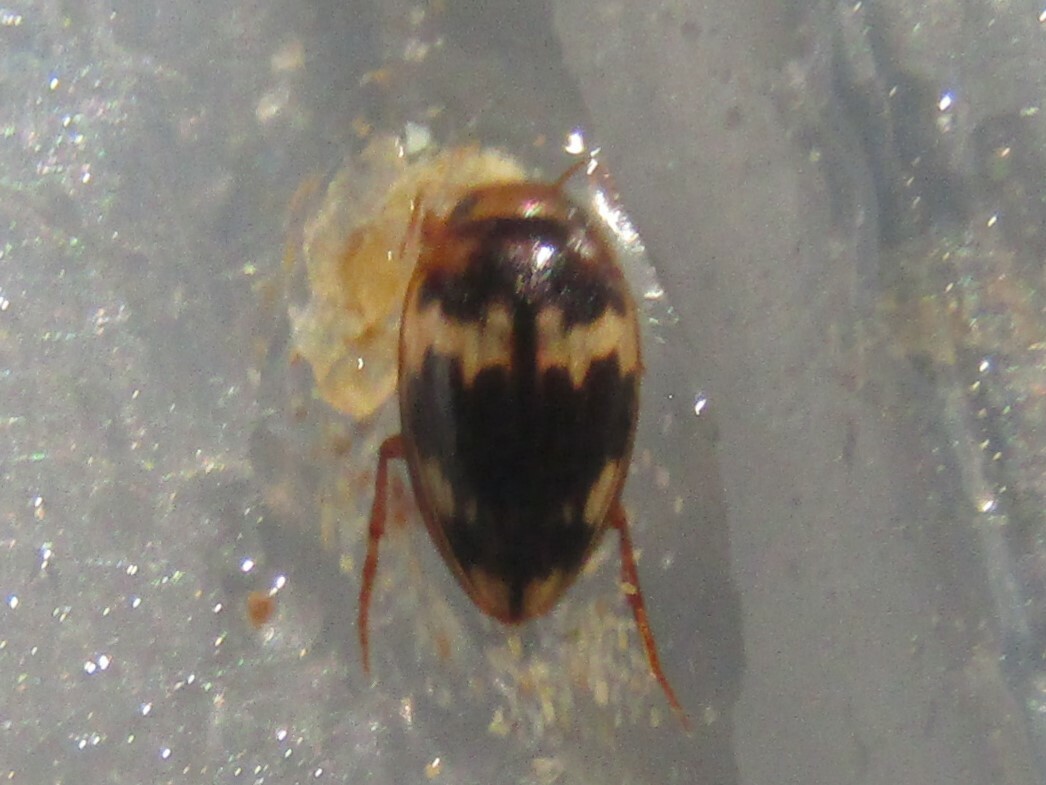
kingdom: Animalia
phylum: Arthropoda
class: Insecta
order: Coleoptera
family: Dytiscidae
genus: Neoporus
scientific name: Neoporus
